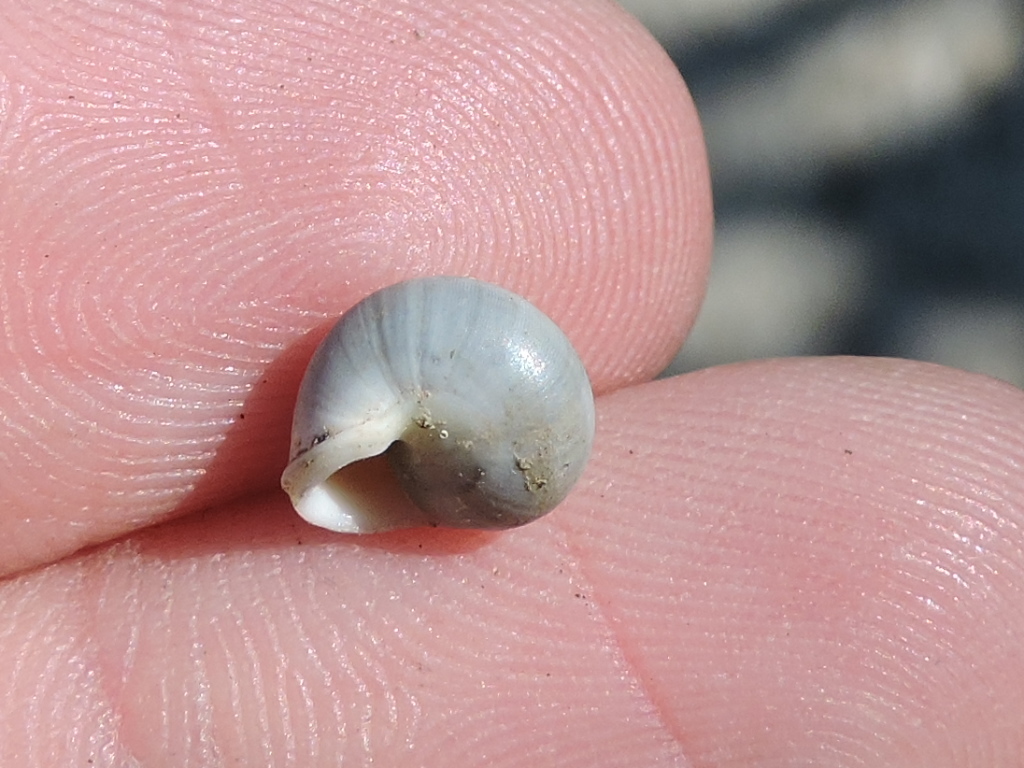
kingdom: Animalia
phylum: Mollusca
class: Gastropoda
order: Cycloneritida
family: Helicinidae
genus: Helicina
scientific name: Helicina orbiculata
